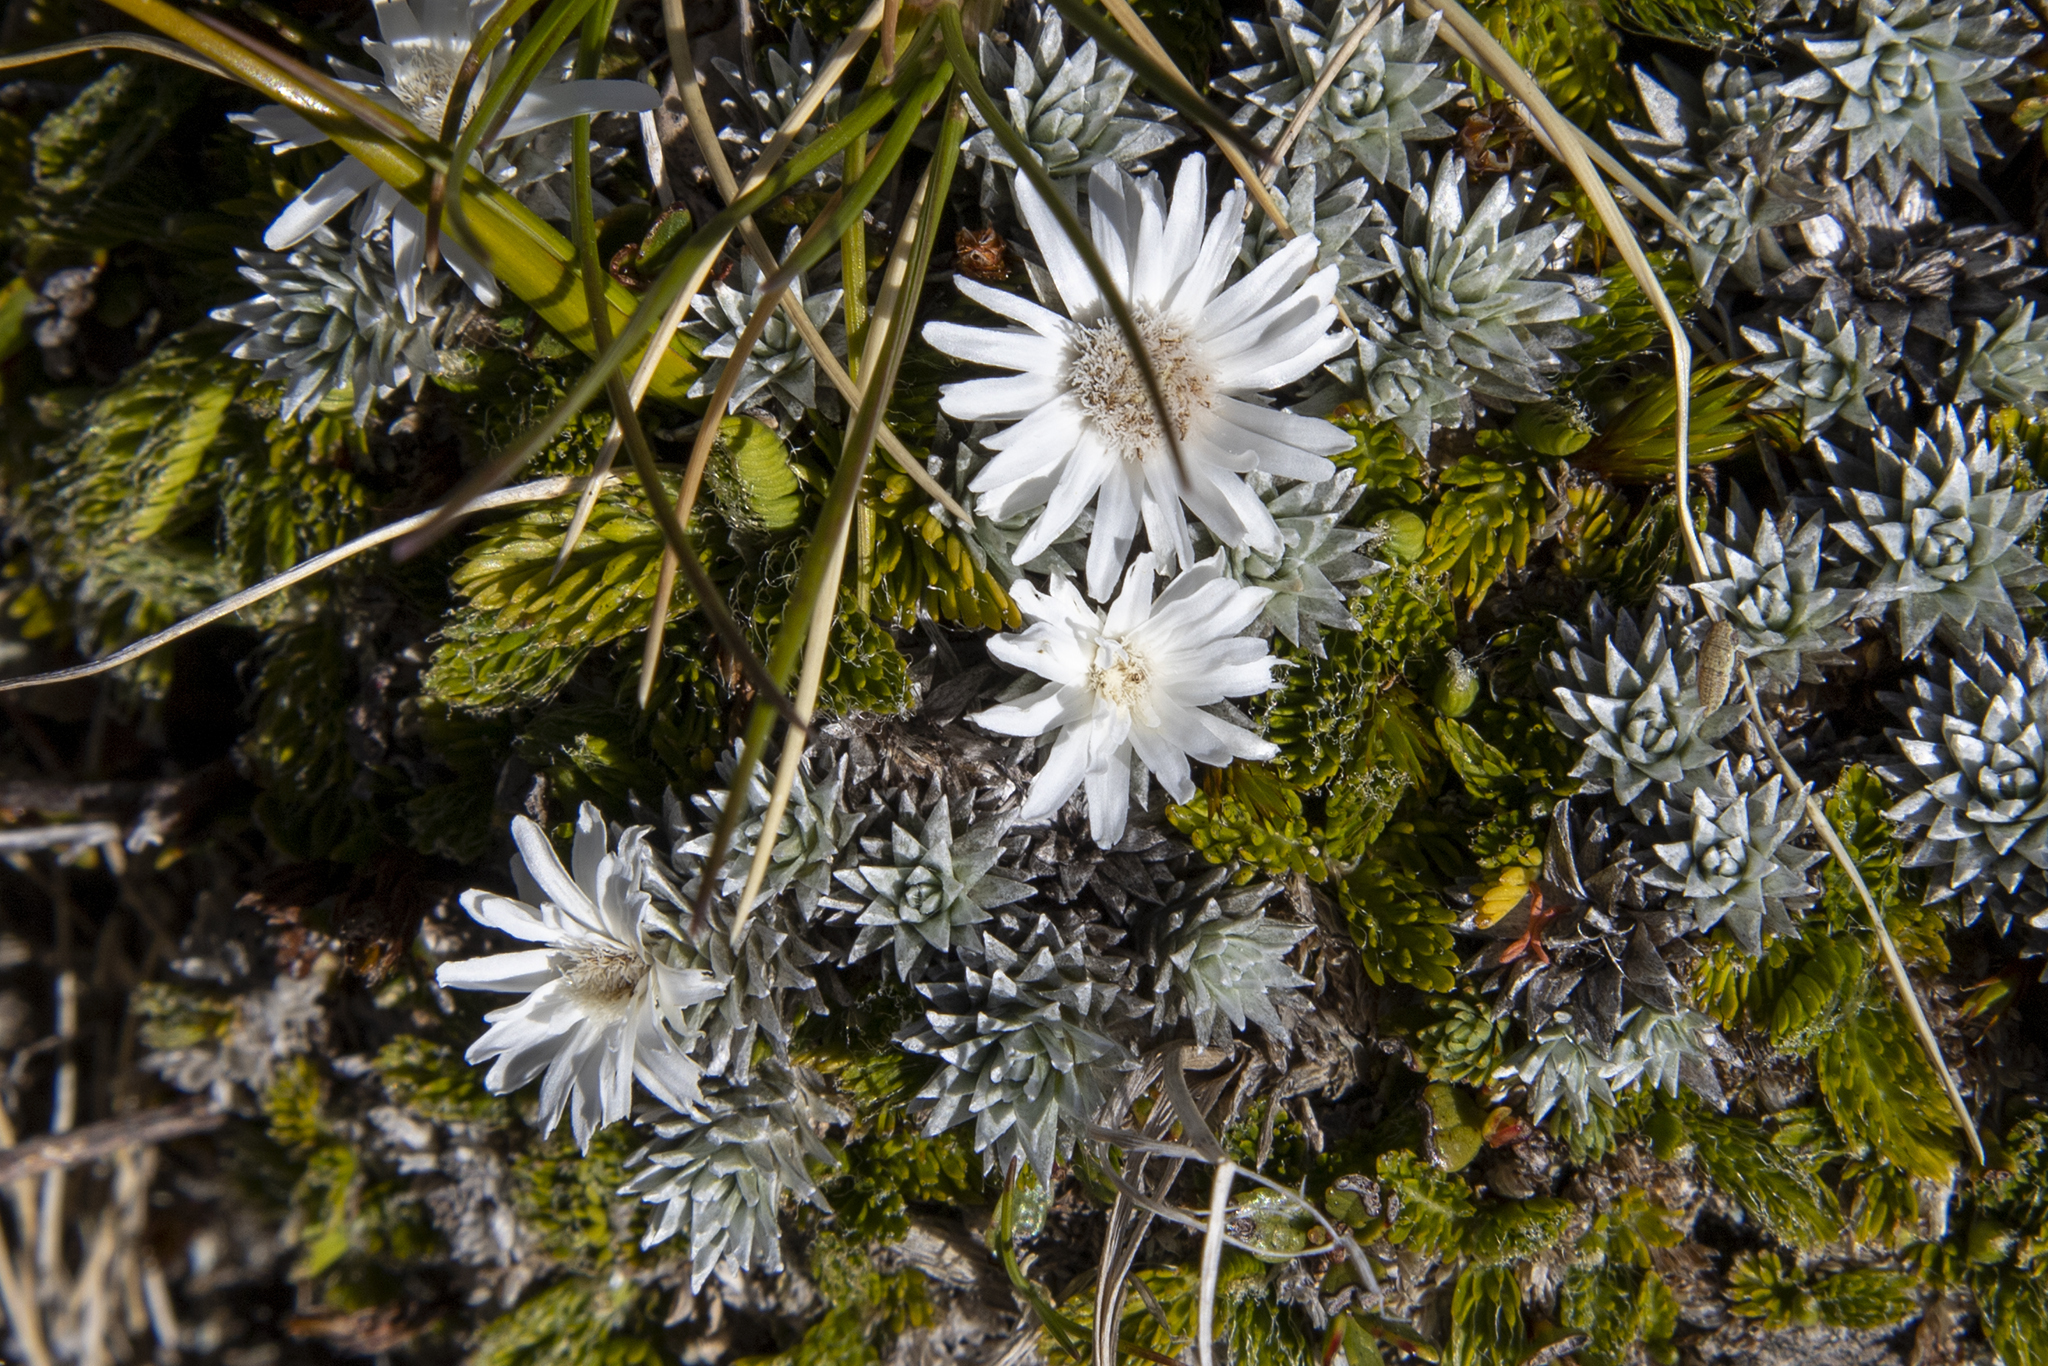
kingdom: Plantae
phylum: Tracheophyta
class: Magnoliopsida
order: Asterales
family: Asteraceae
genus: Raoulia
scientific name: Raoulia grandiflora
